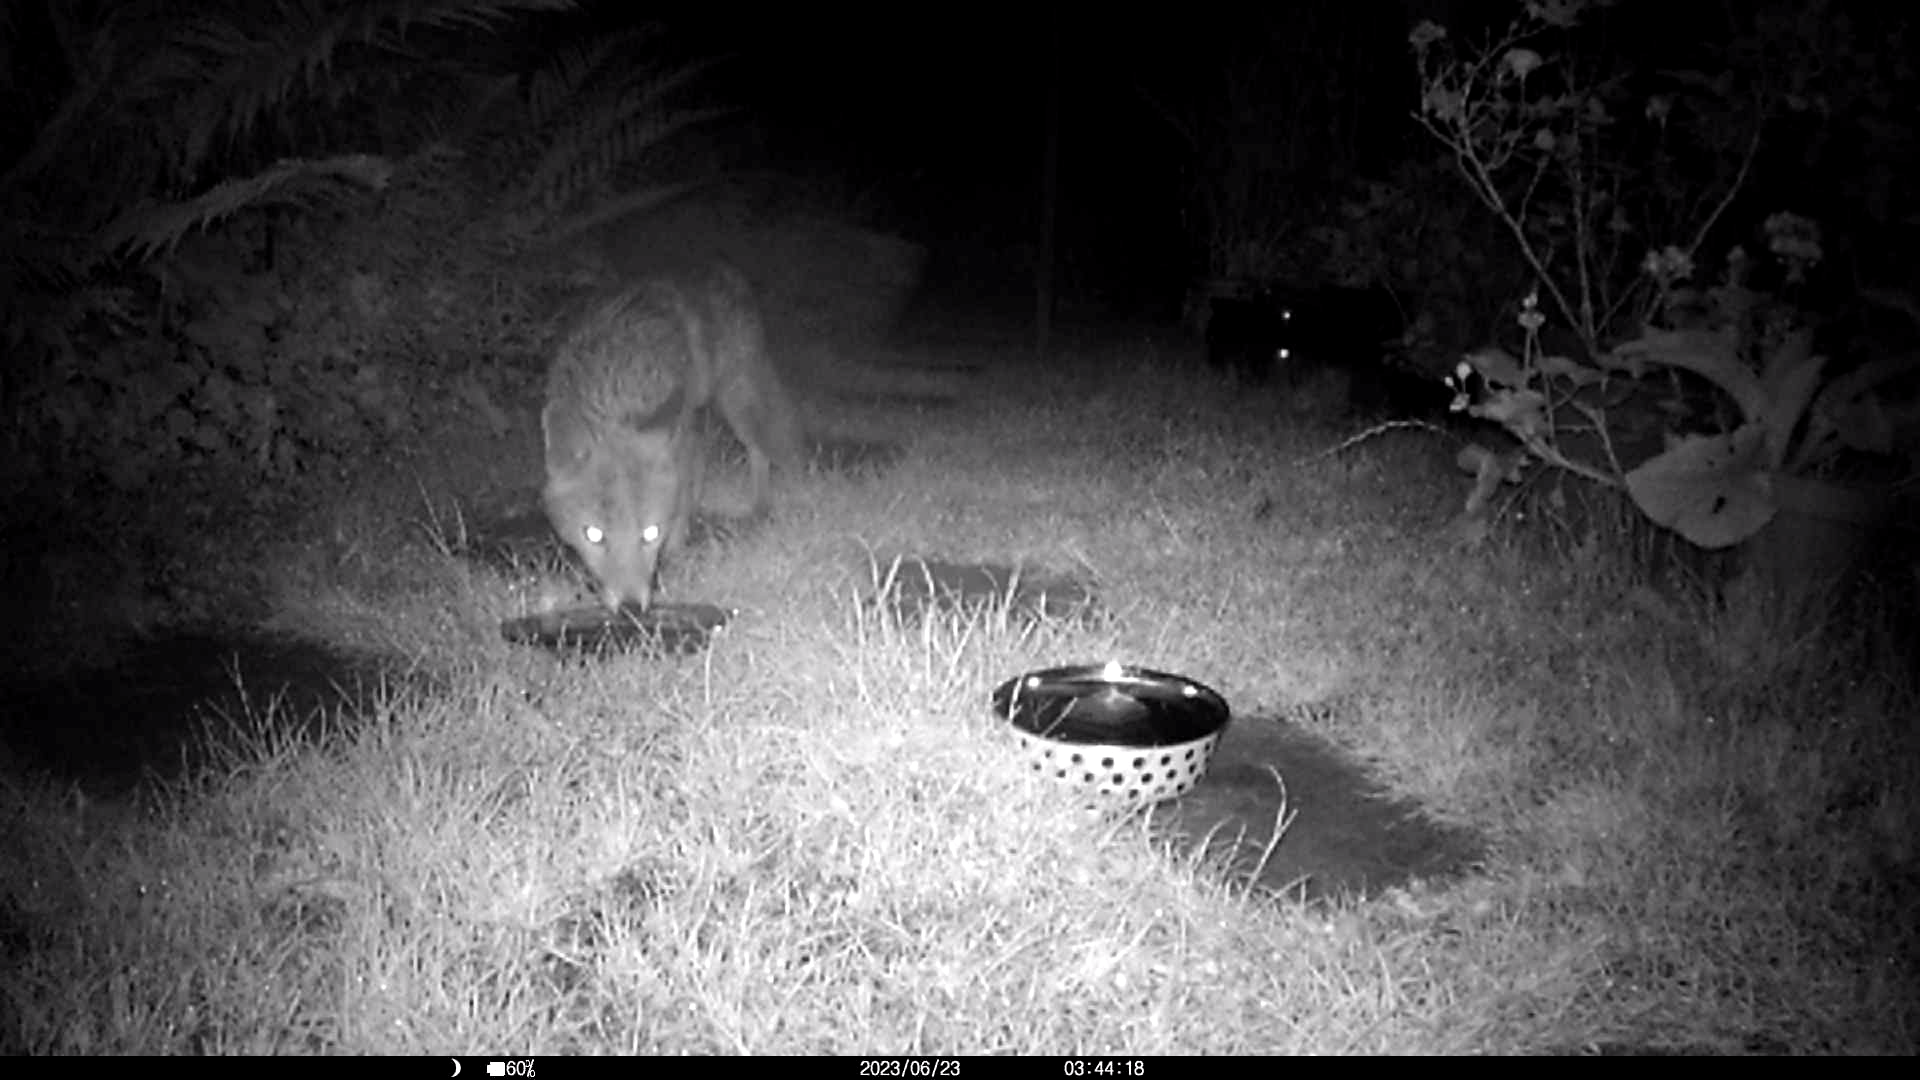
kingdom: Animalia
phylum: Chordata
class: Mammalia
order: Carnivora
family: Canidae
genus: Vulpes
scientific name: Vulpes vulpes
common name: Red fox
